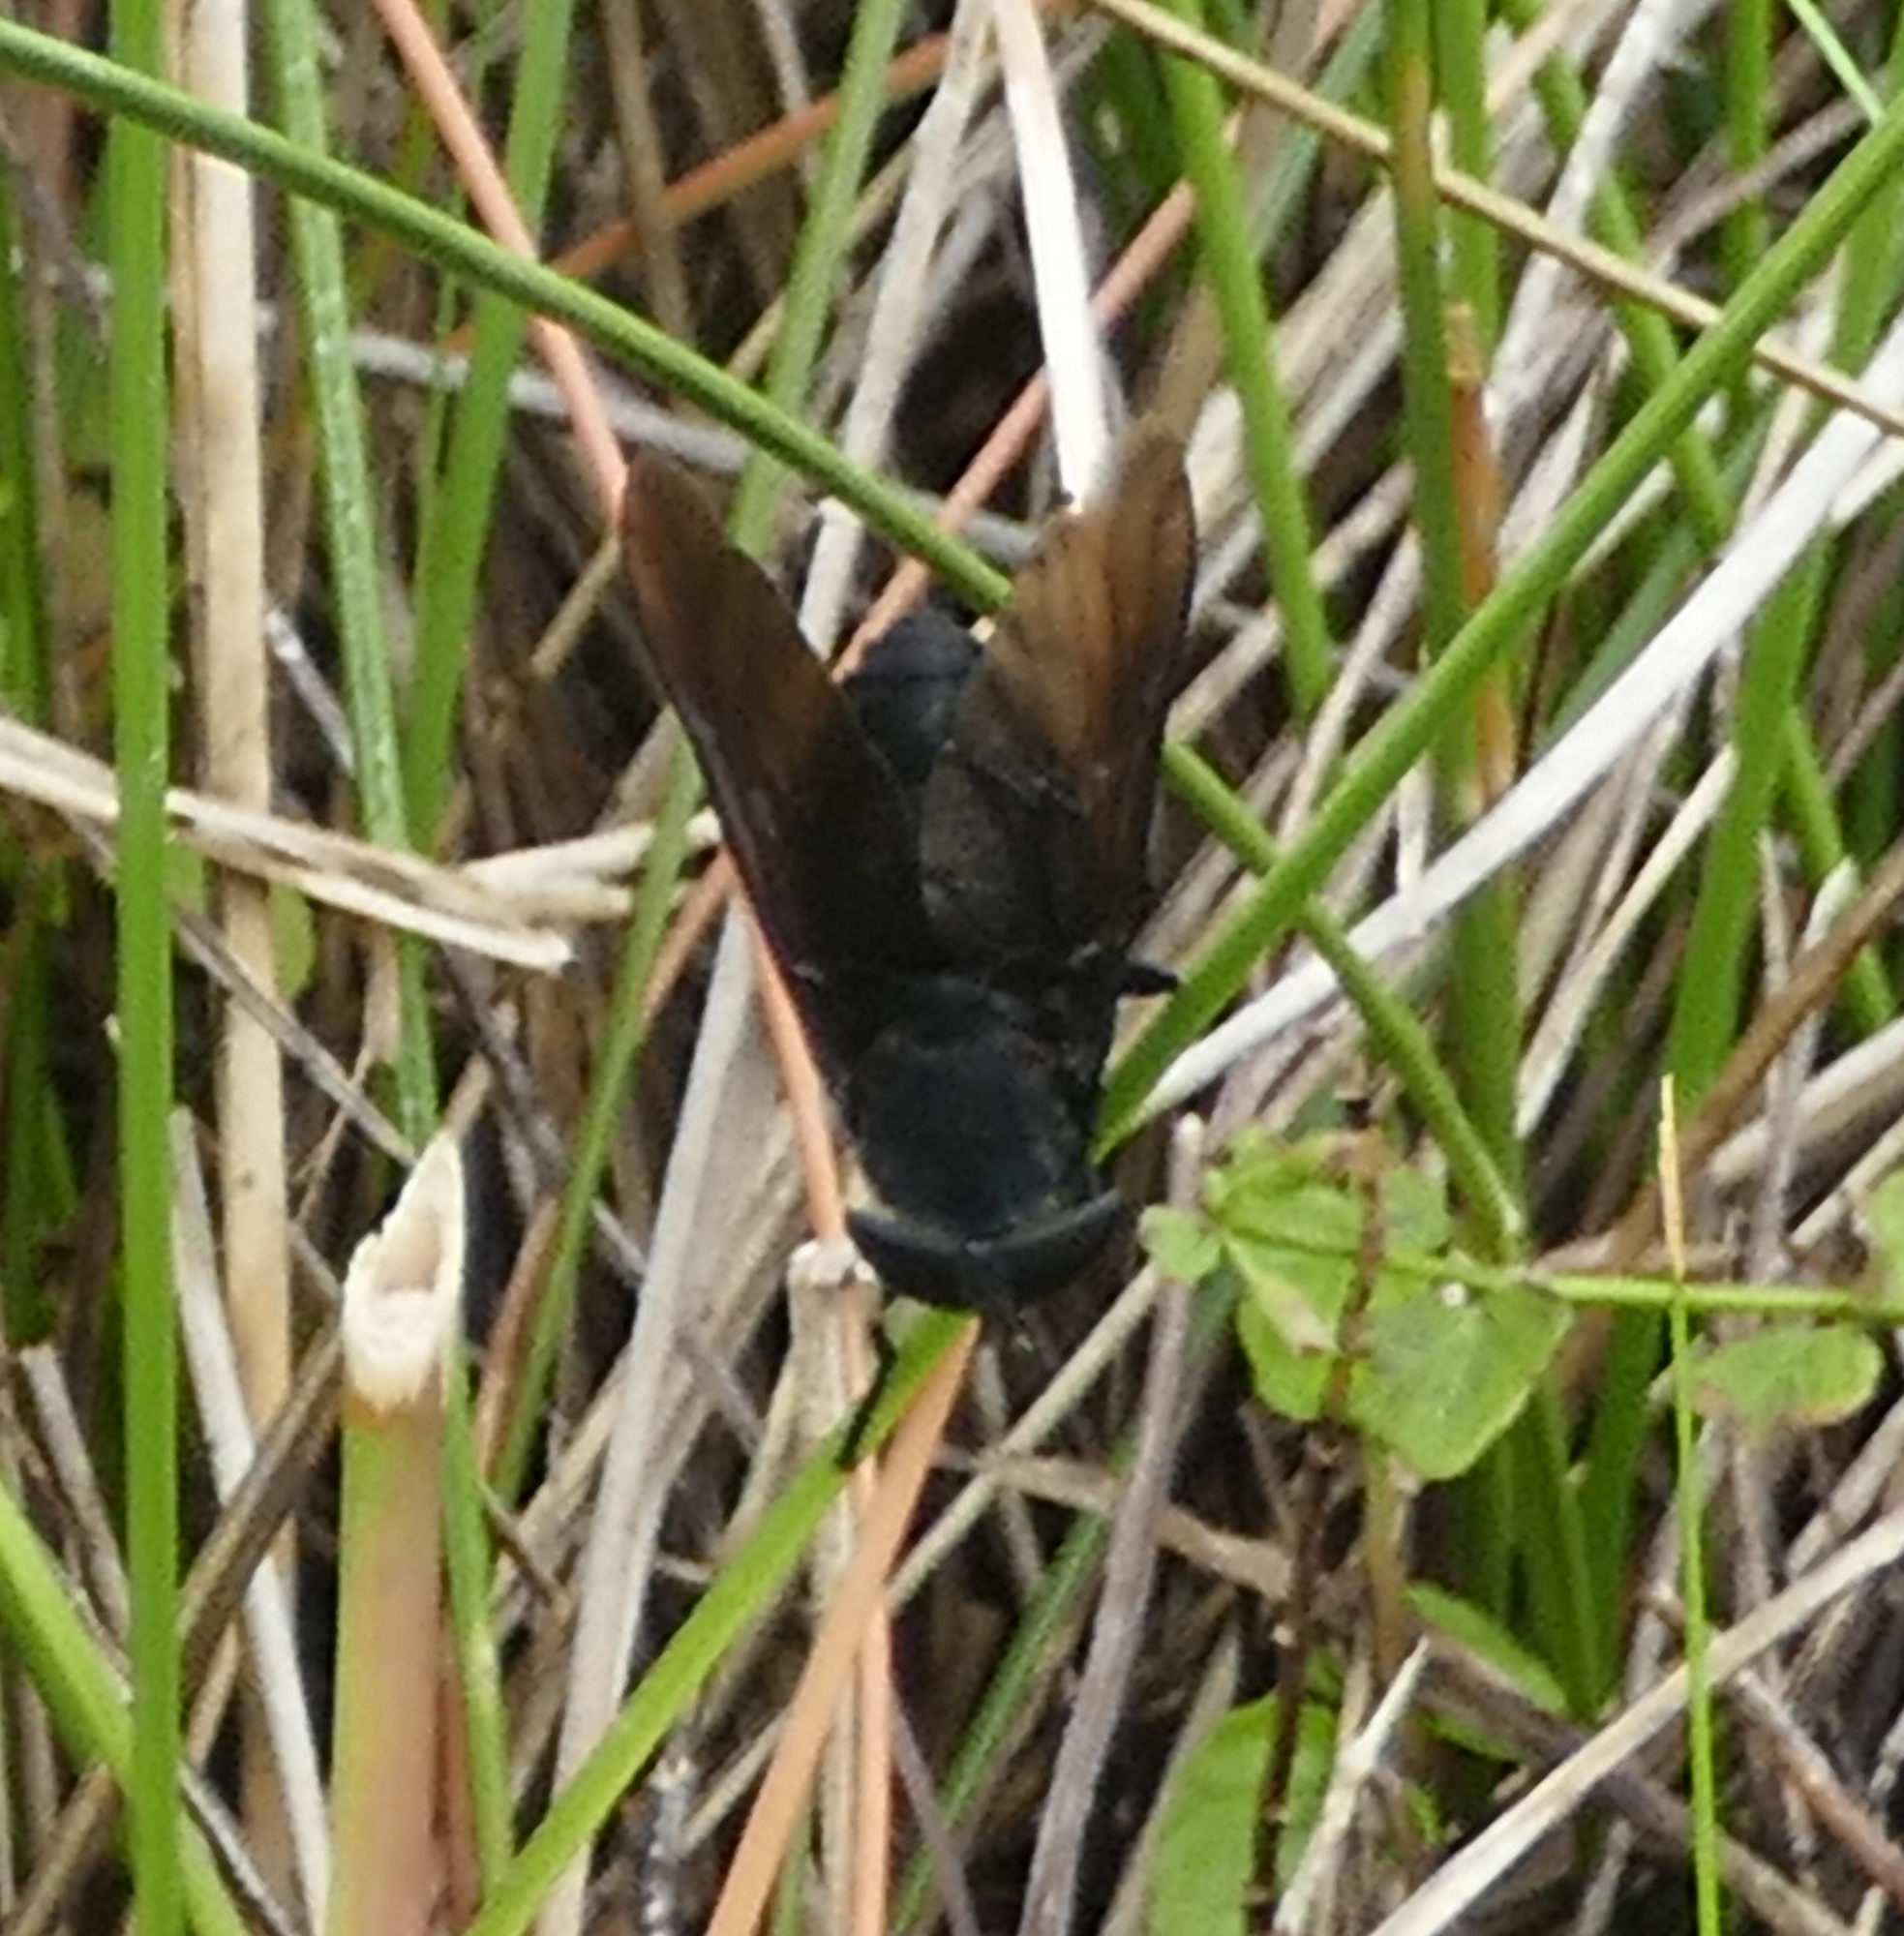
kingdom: Animalia
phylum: Arthropoda
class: Insecta
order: Diptera
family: Tabanidae
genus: Tabanus
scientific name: Tabanus atratus
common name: Black horse fly
